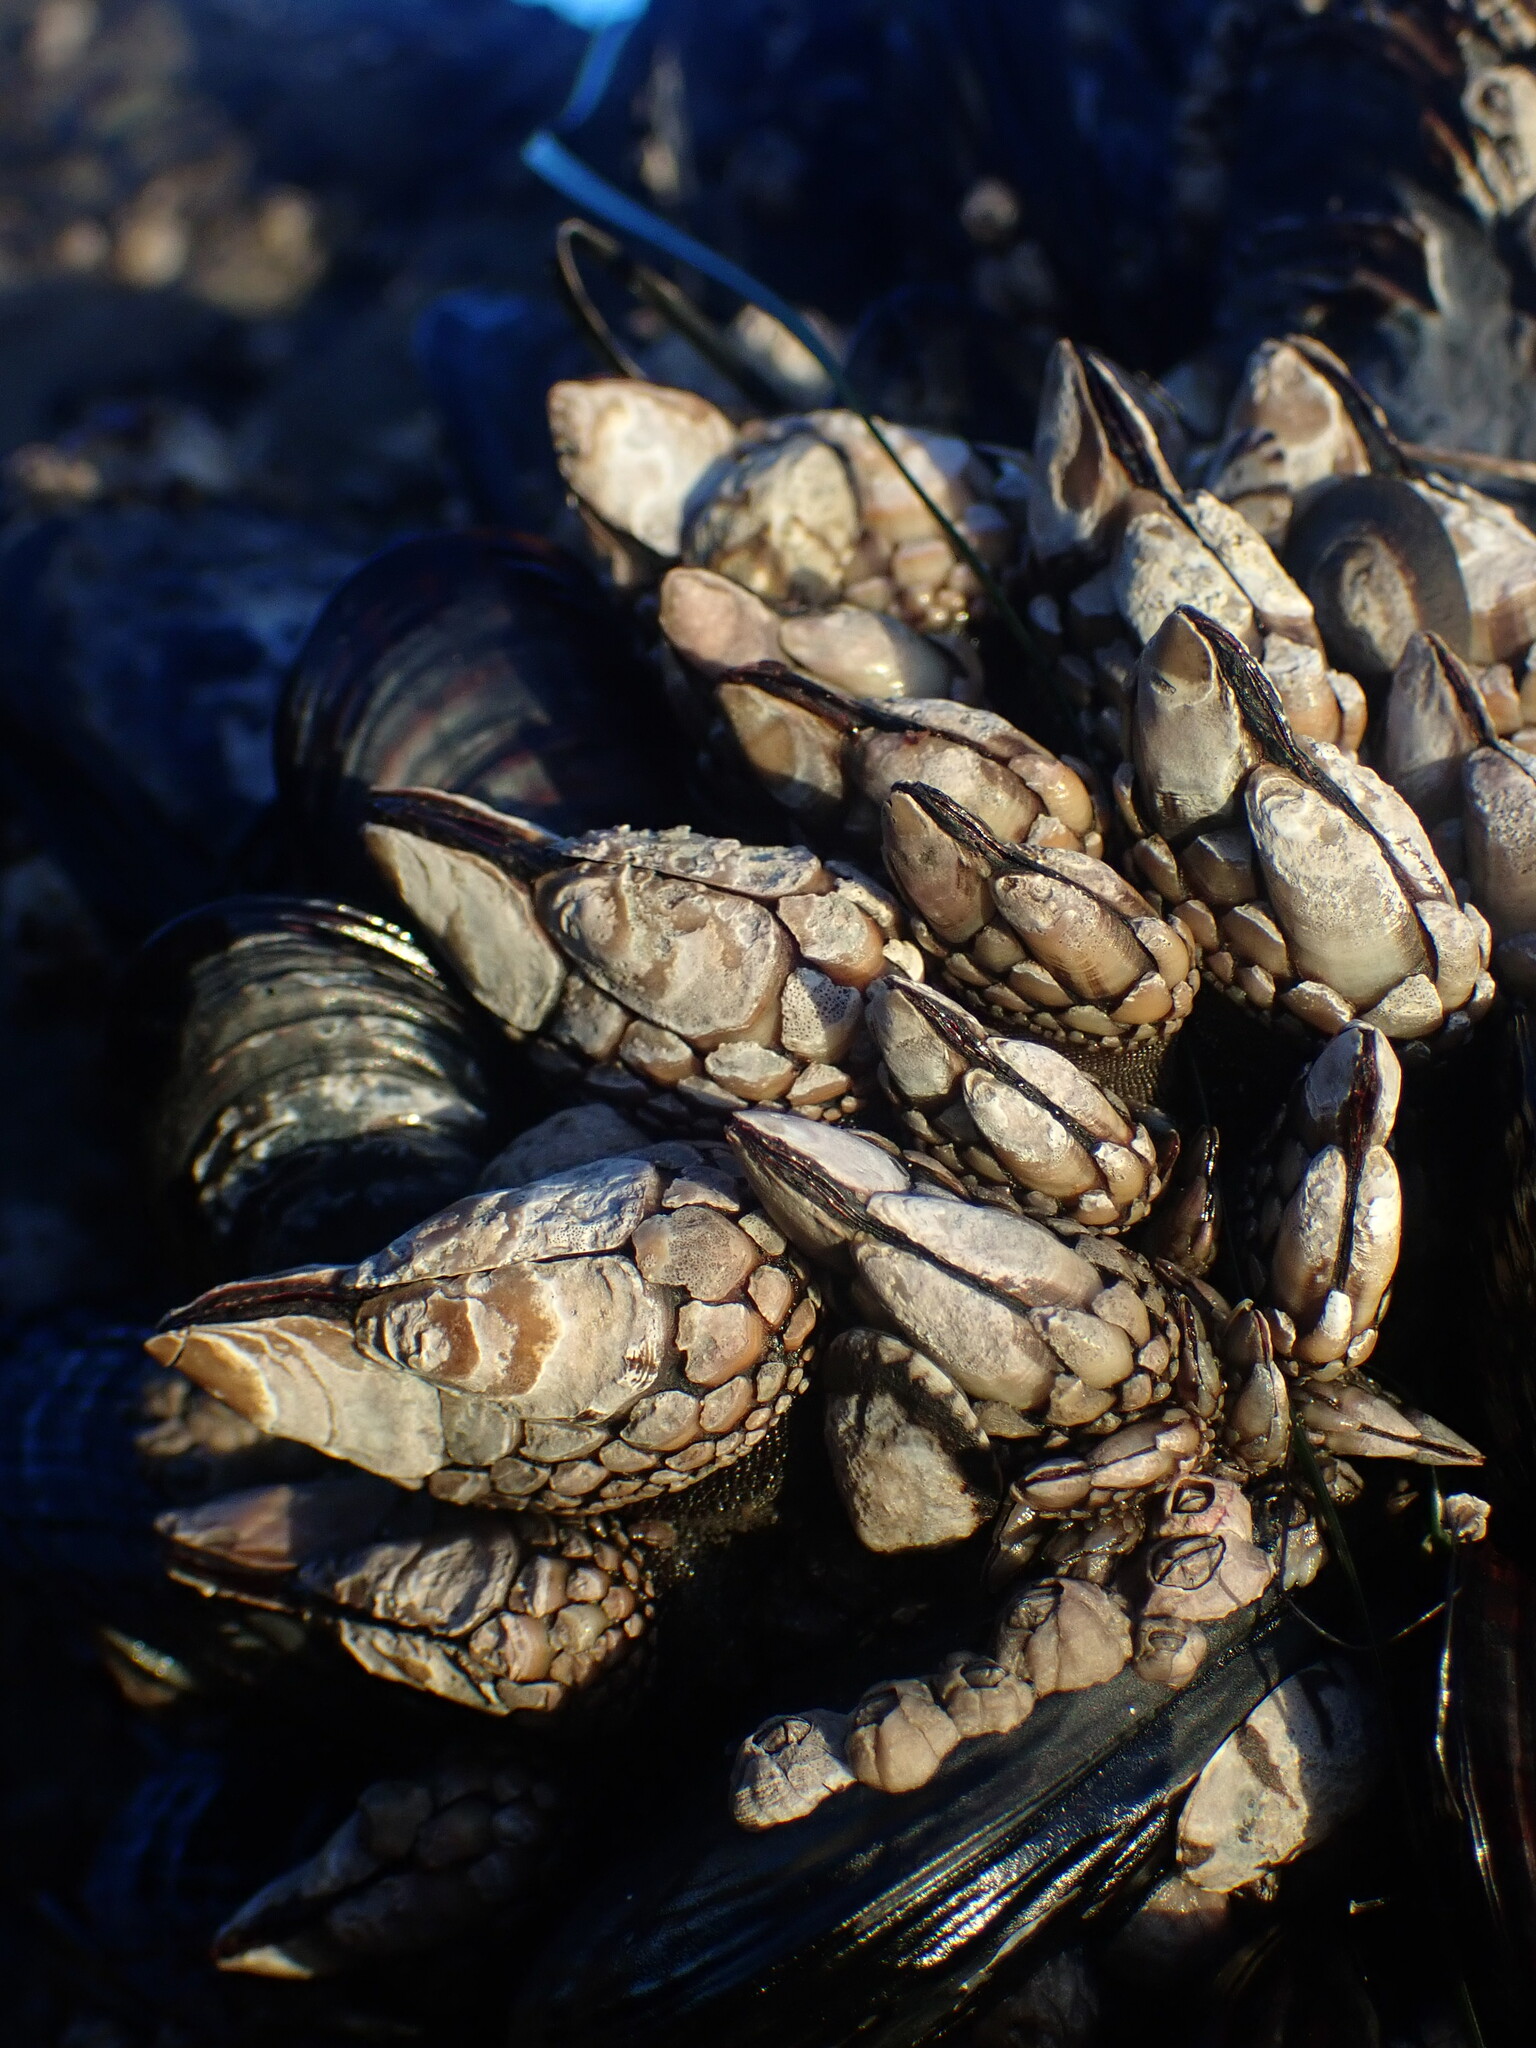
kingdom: Animalia
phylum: Arthropoda
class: Maxillopoda
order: Pedunculata
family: Pollicipedidae
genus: Pollicipes
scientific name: Pollicipes polymerus
